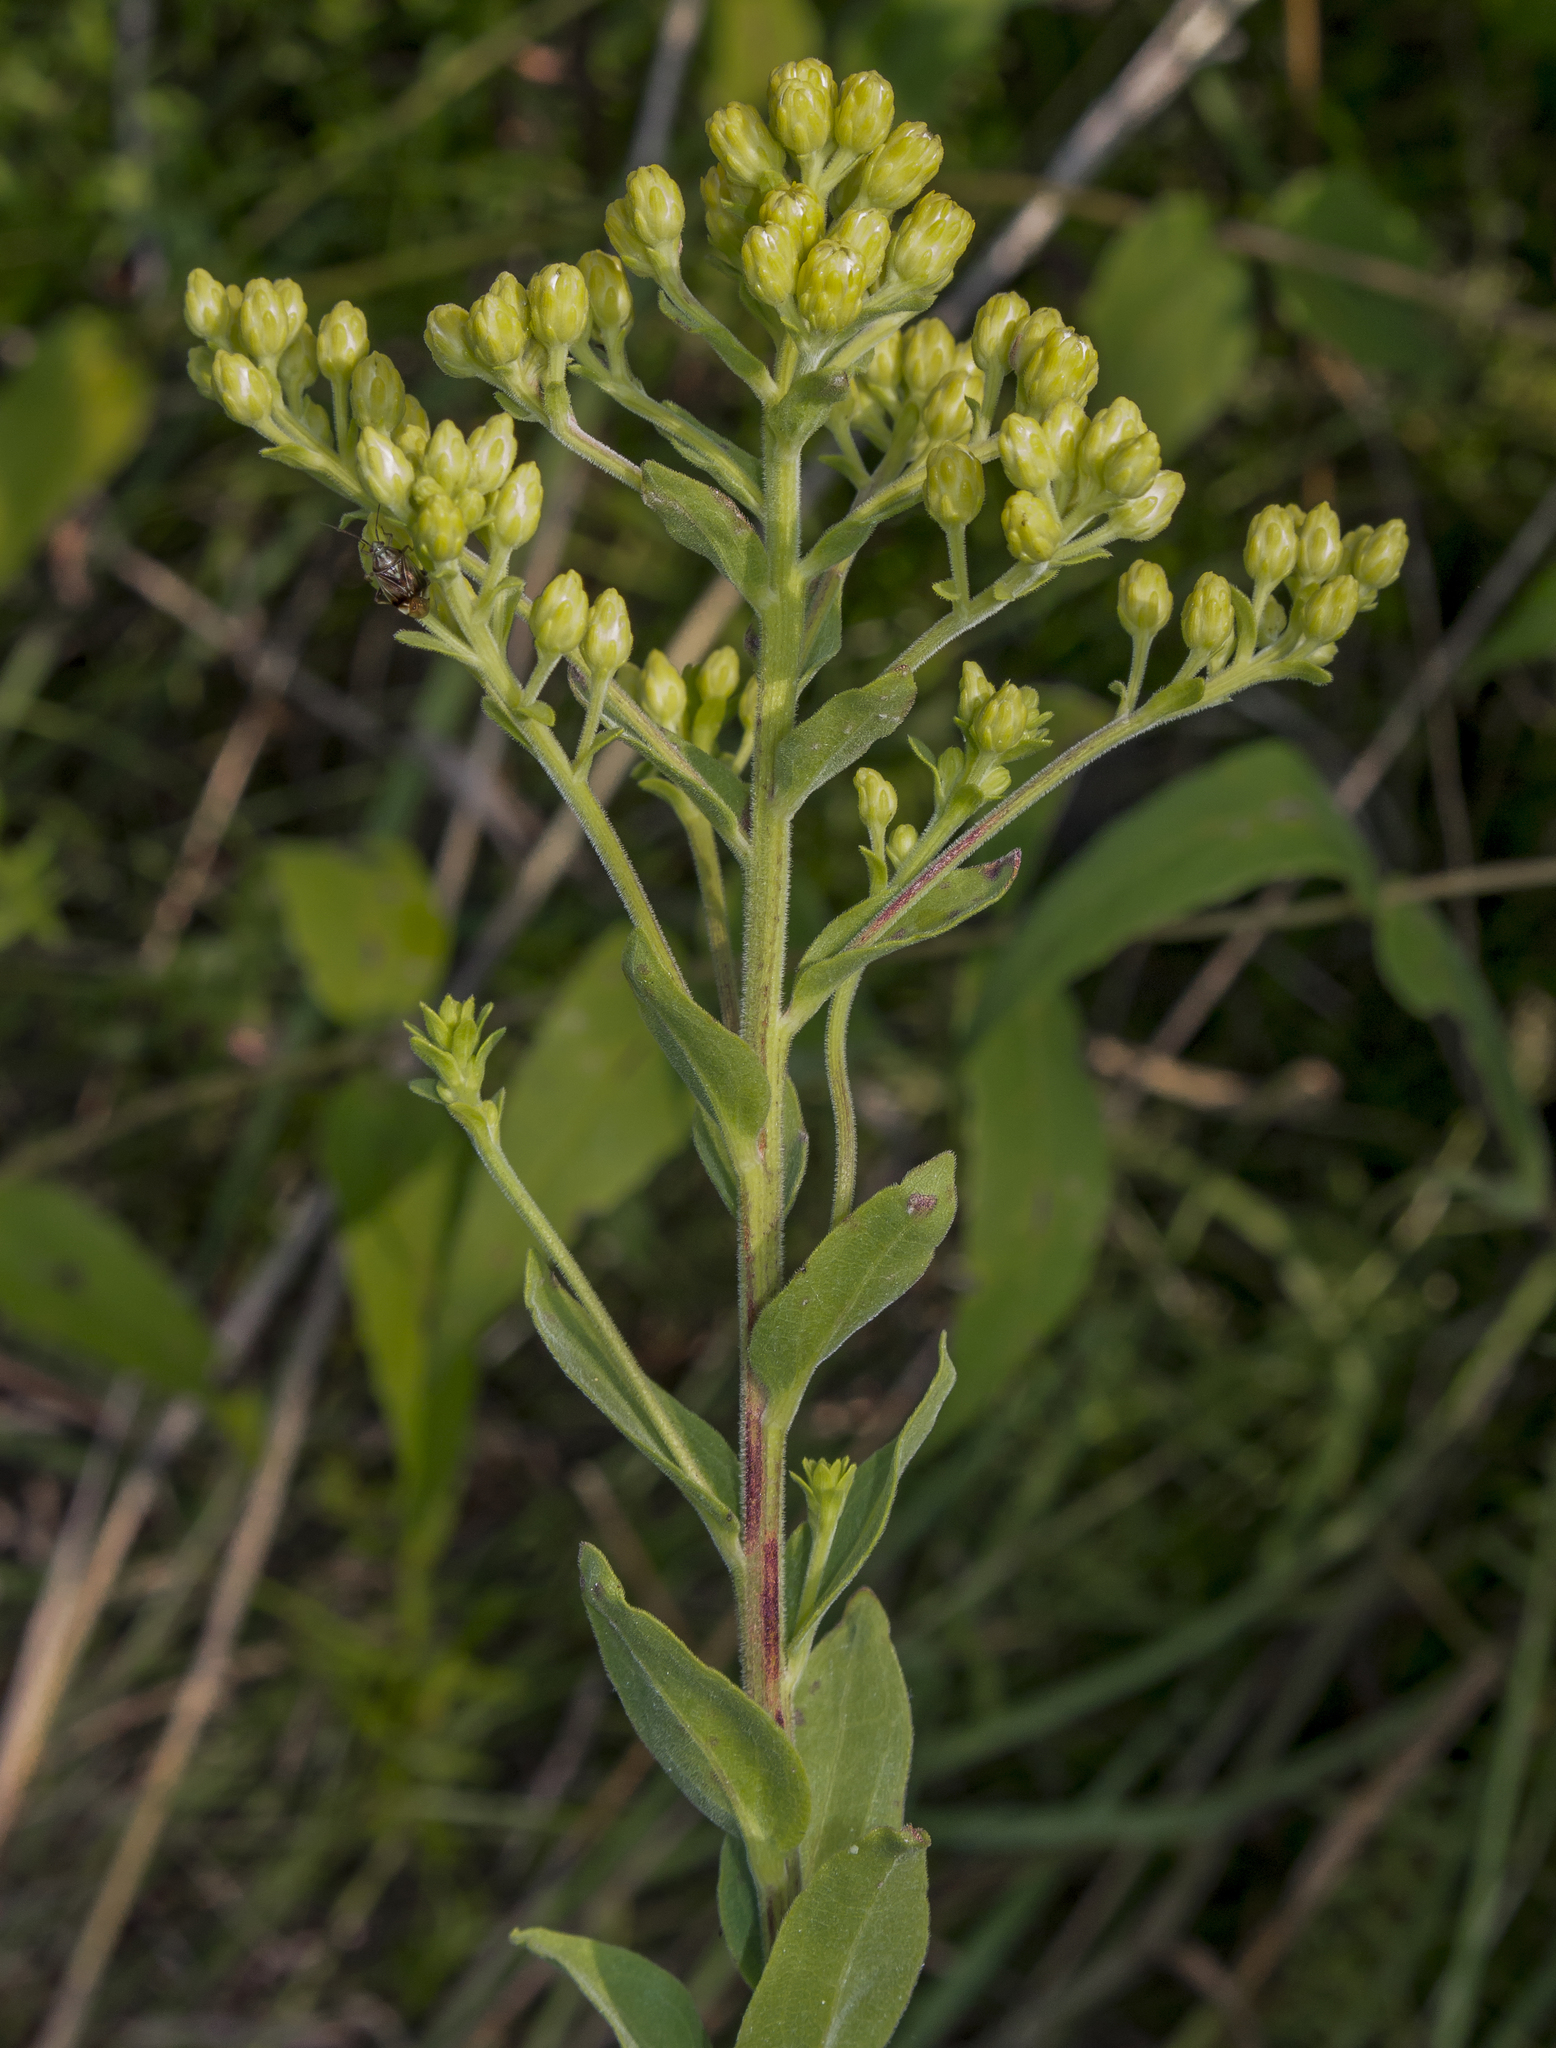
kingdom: Plantae
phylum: Tracheophyta
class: Magnoliopsida
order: Asterales
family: Asteraceae
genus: Solidago
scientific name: Solidago rigida
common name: Rigid goldenrod
